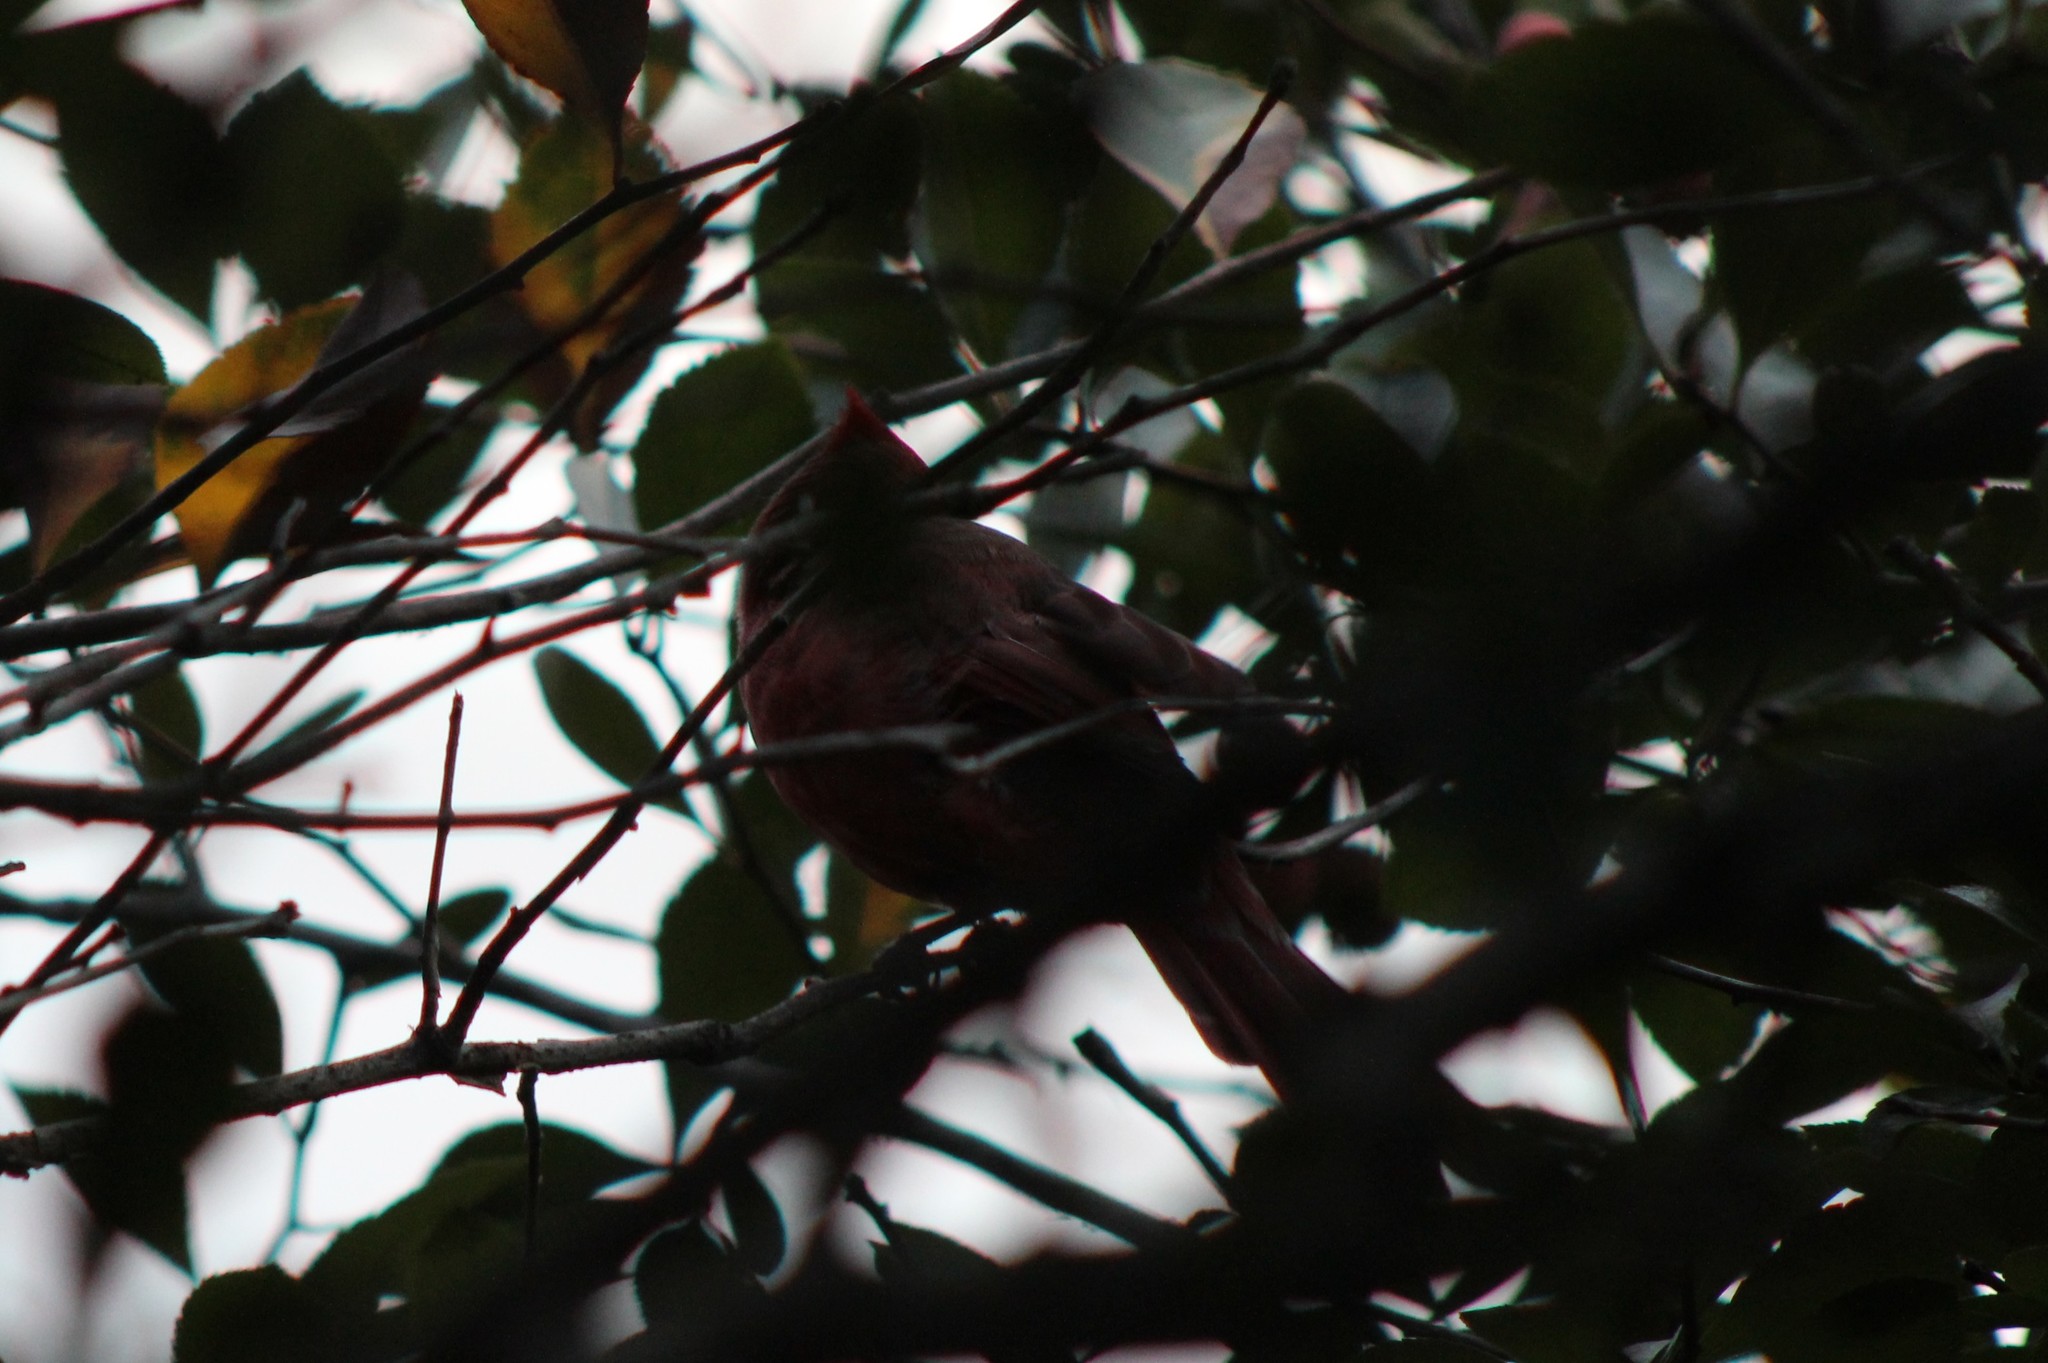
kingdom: Animalia
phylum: Chordata
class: Aves
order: Passeriformes
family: Cardinalidae
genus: Cardinalis
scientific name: Cardinalis cardinalis
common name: Northern cardinal
